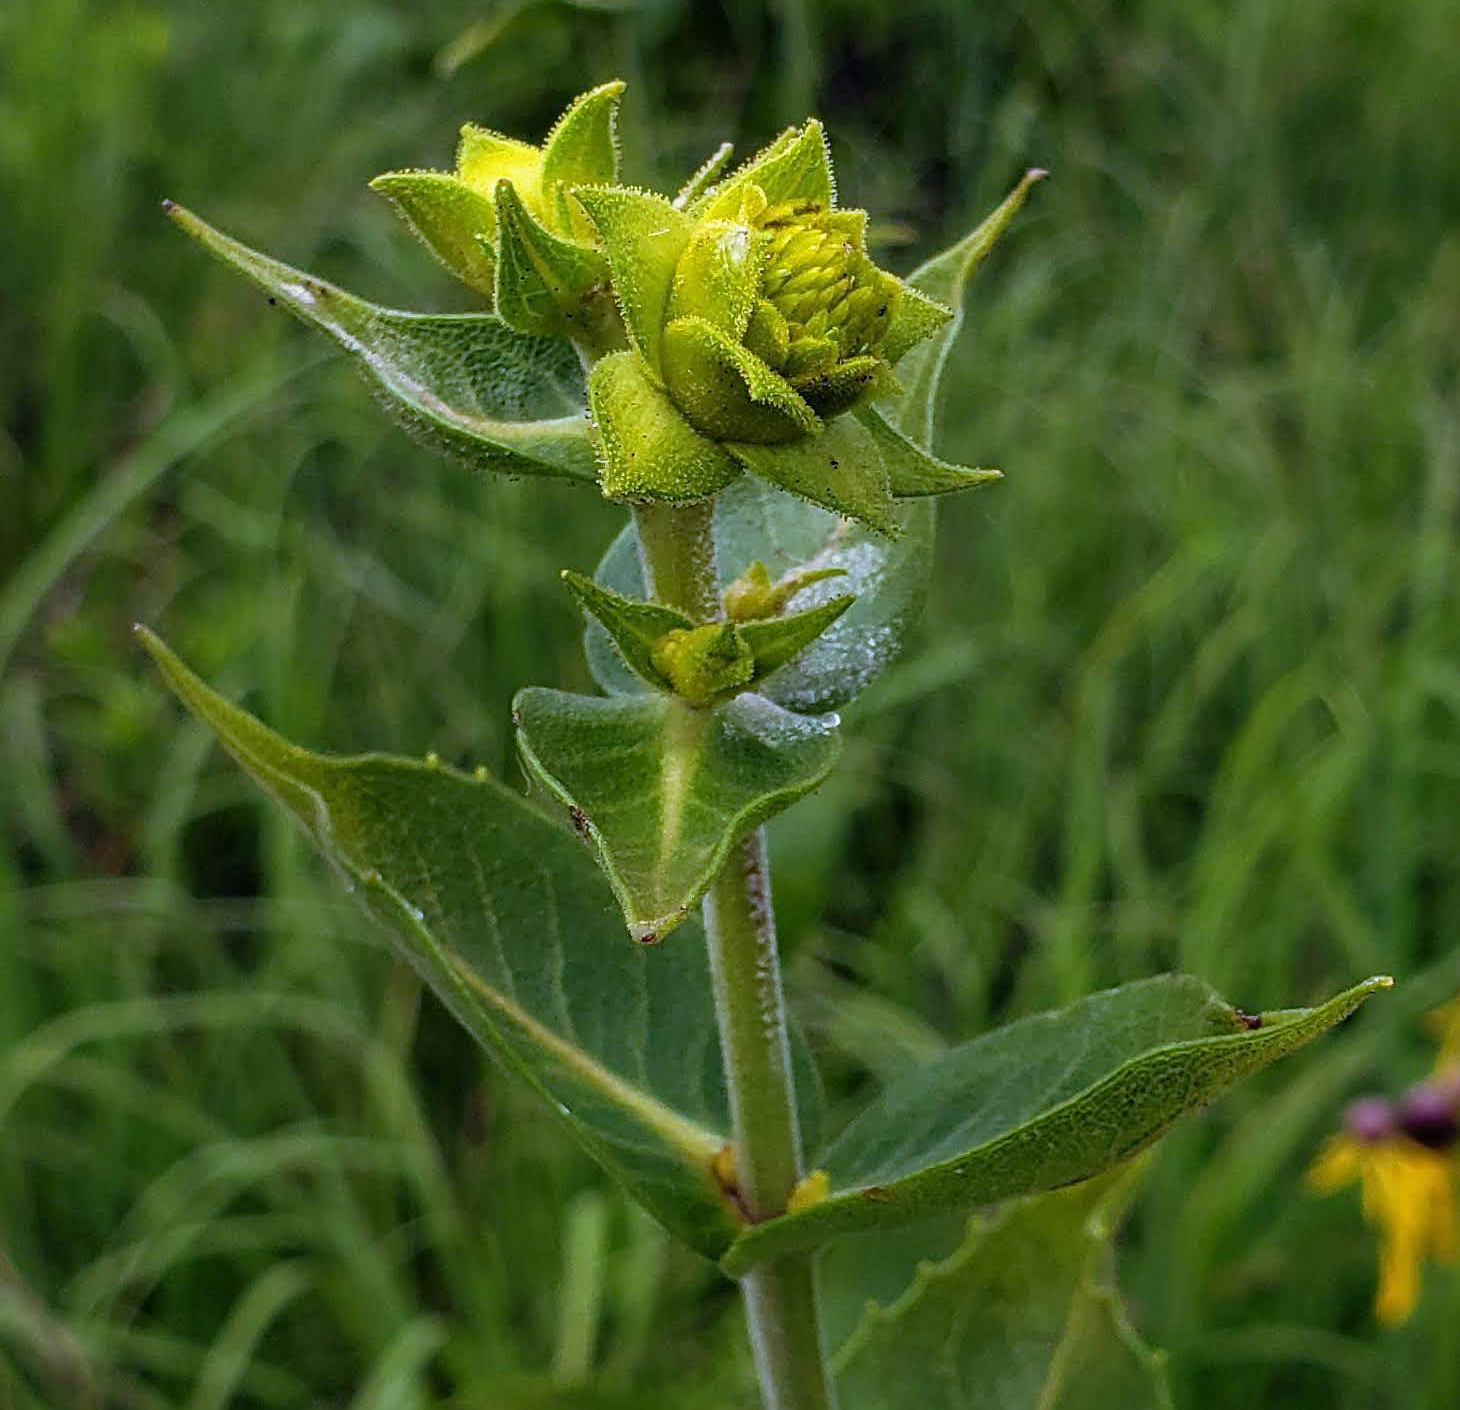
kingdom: Plantae
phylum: Tracheophyta
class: Magnoliopsida
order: Asterales
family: Asteraceae
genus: Silphium
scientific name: Silphium integrifolium
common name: Whole-leaf rosinweed
